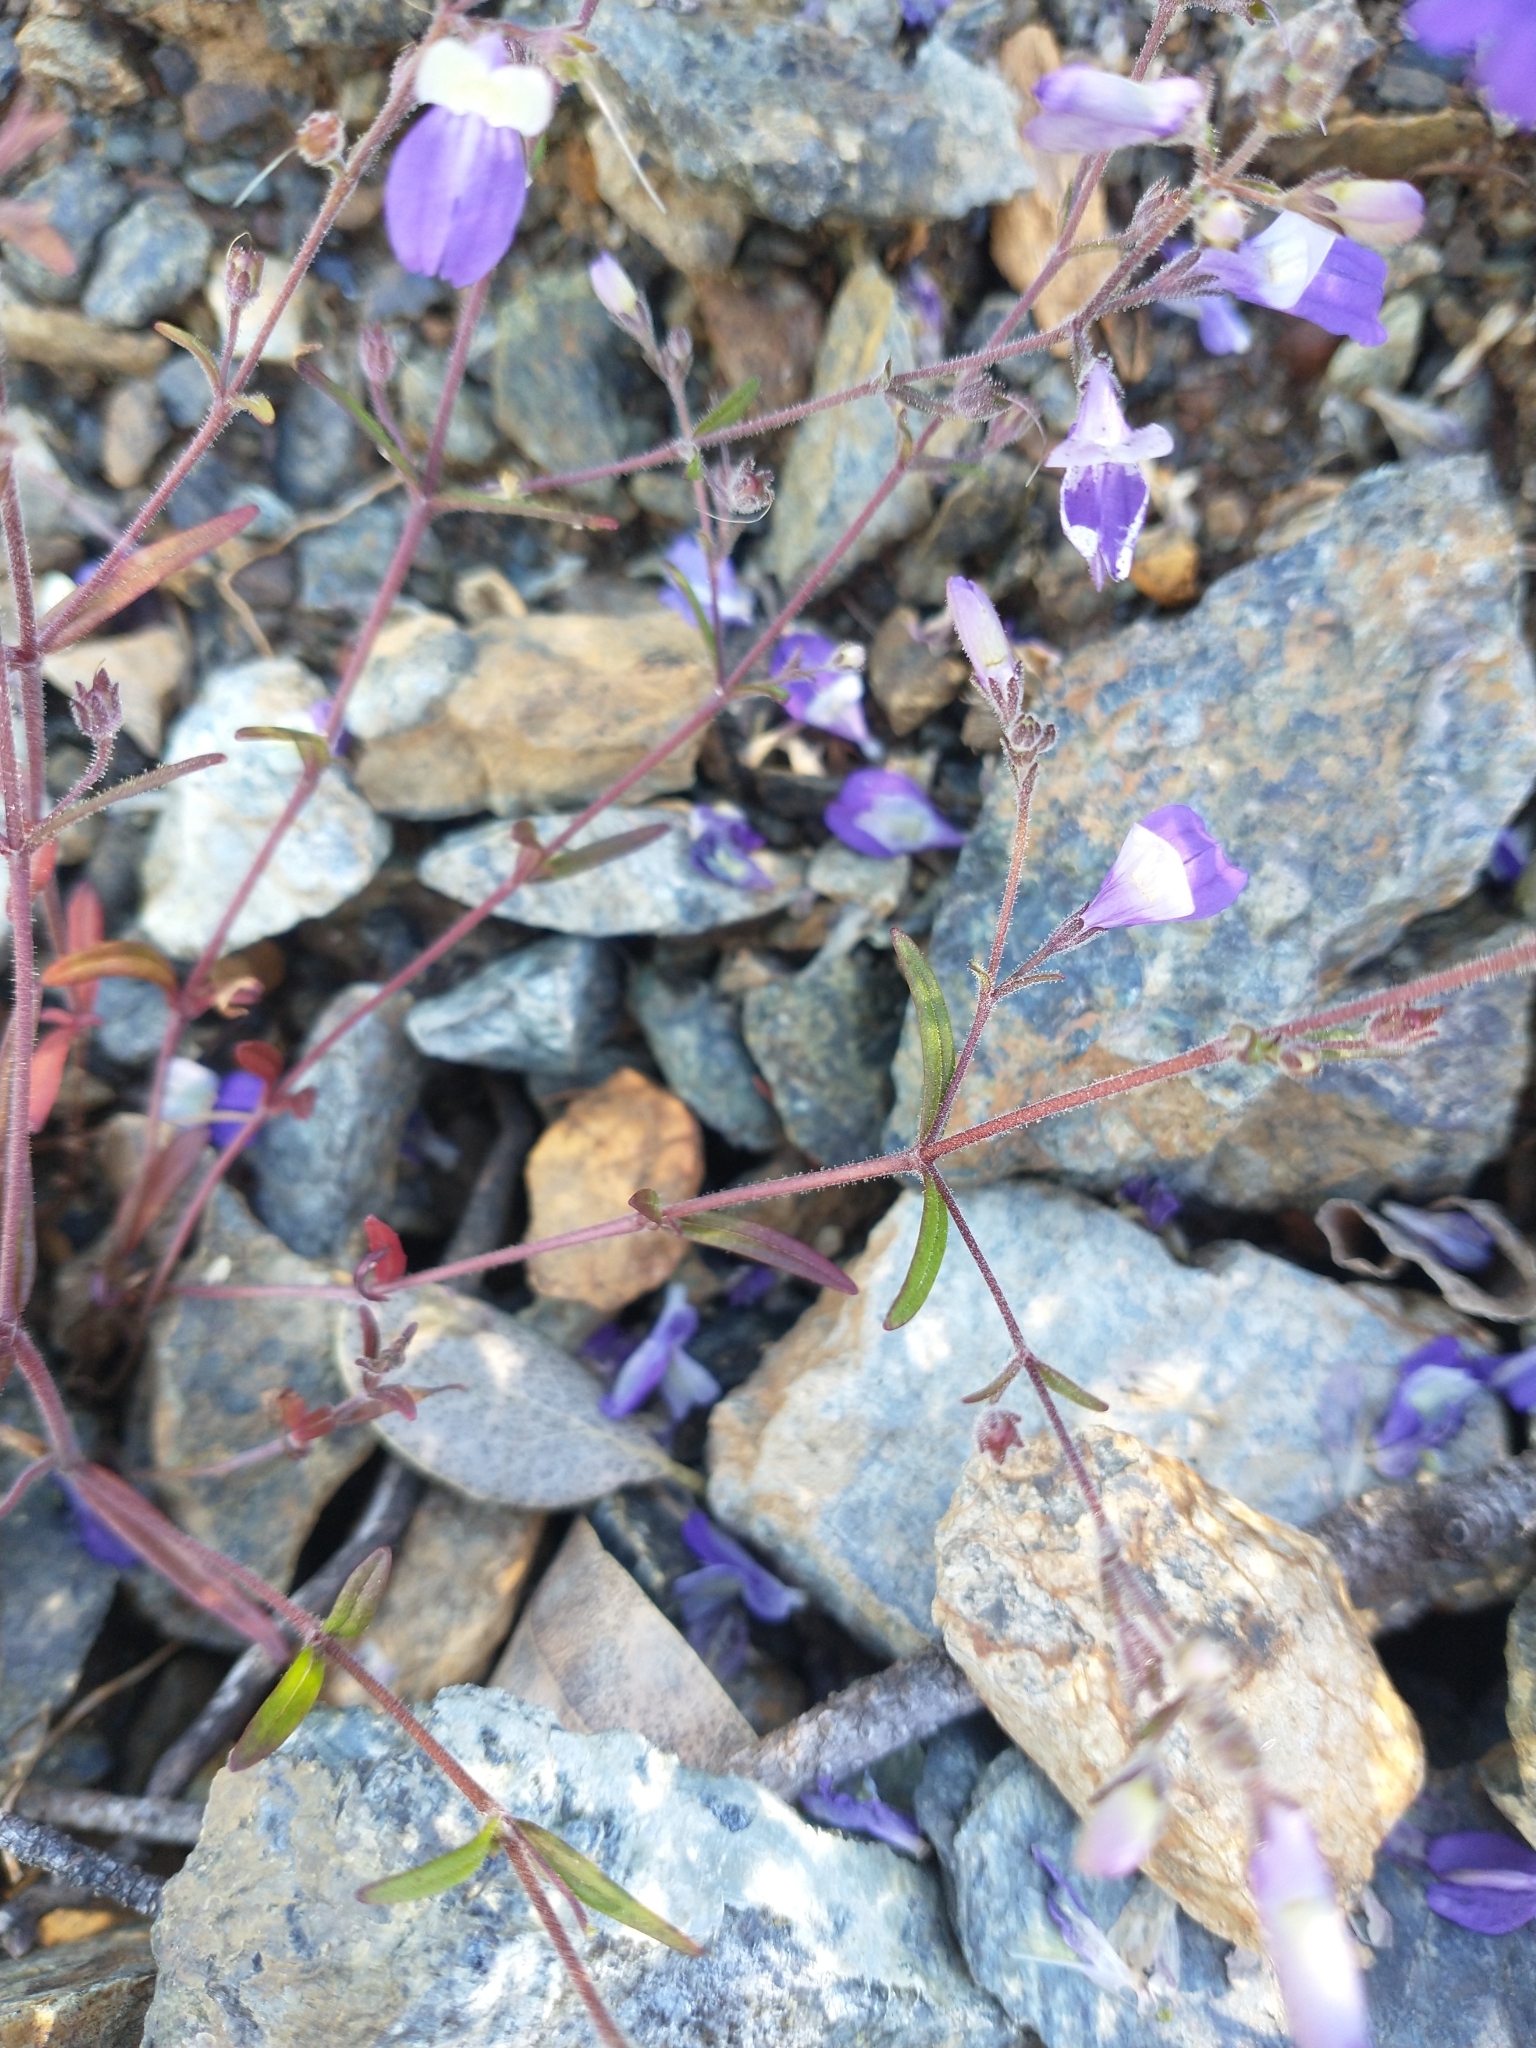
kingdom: Plantae
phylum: Tracheophyta
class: Magnoliopsida
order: Lamiales
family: Plantaginaceae
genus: Collinsia
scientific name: Collinsia linearis
